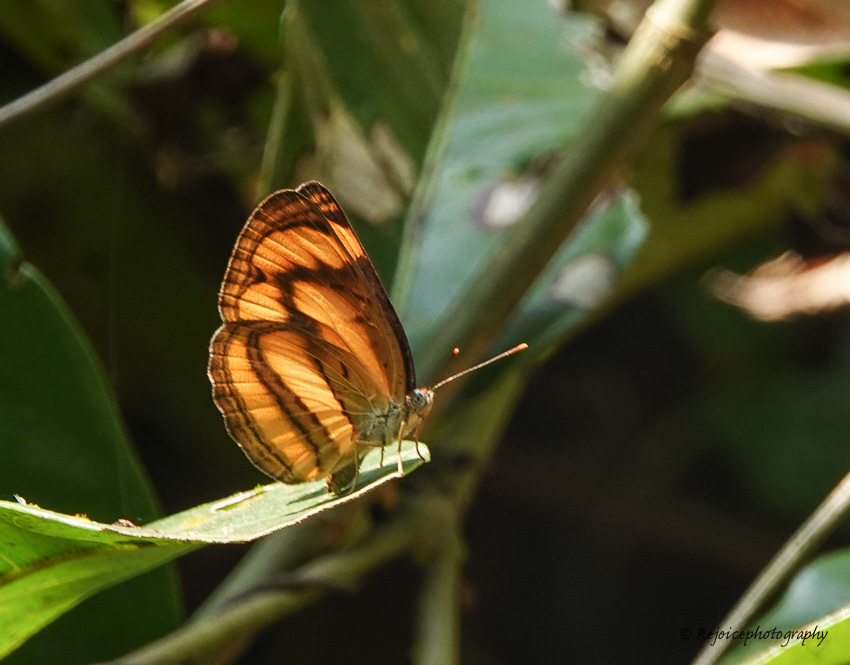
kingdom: Animalia
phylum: Arthropoda
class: Insecta
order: Lepidoptera
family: Nymphalidae
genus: Pantoporia
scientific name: Pantoporia paraka
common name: Perak lascar
